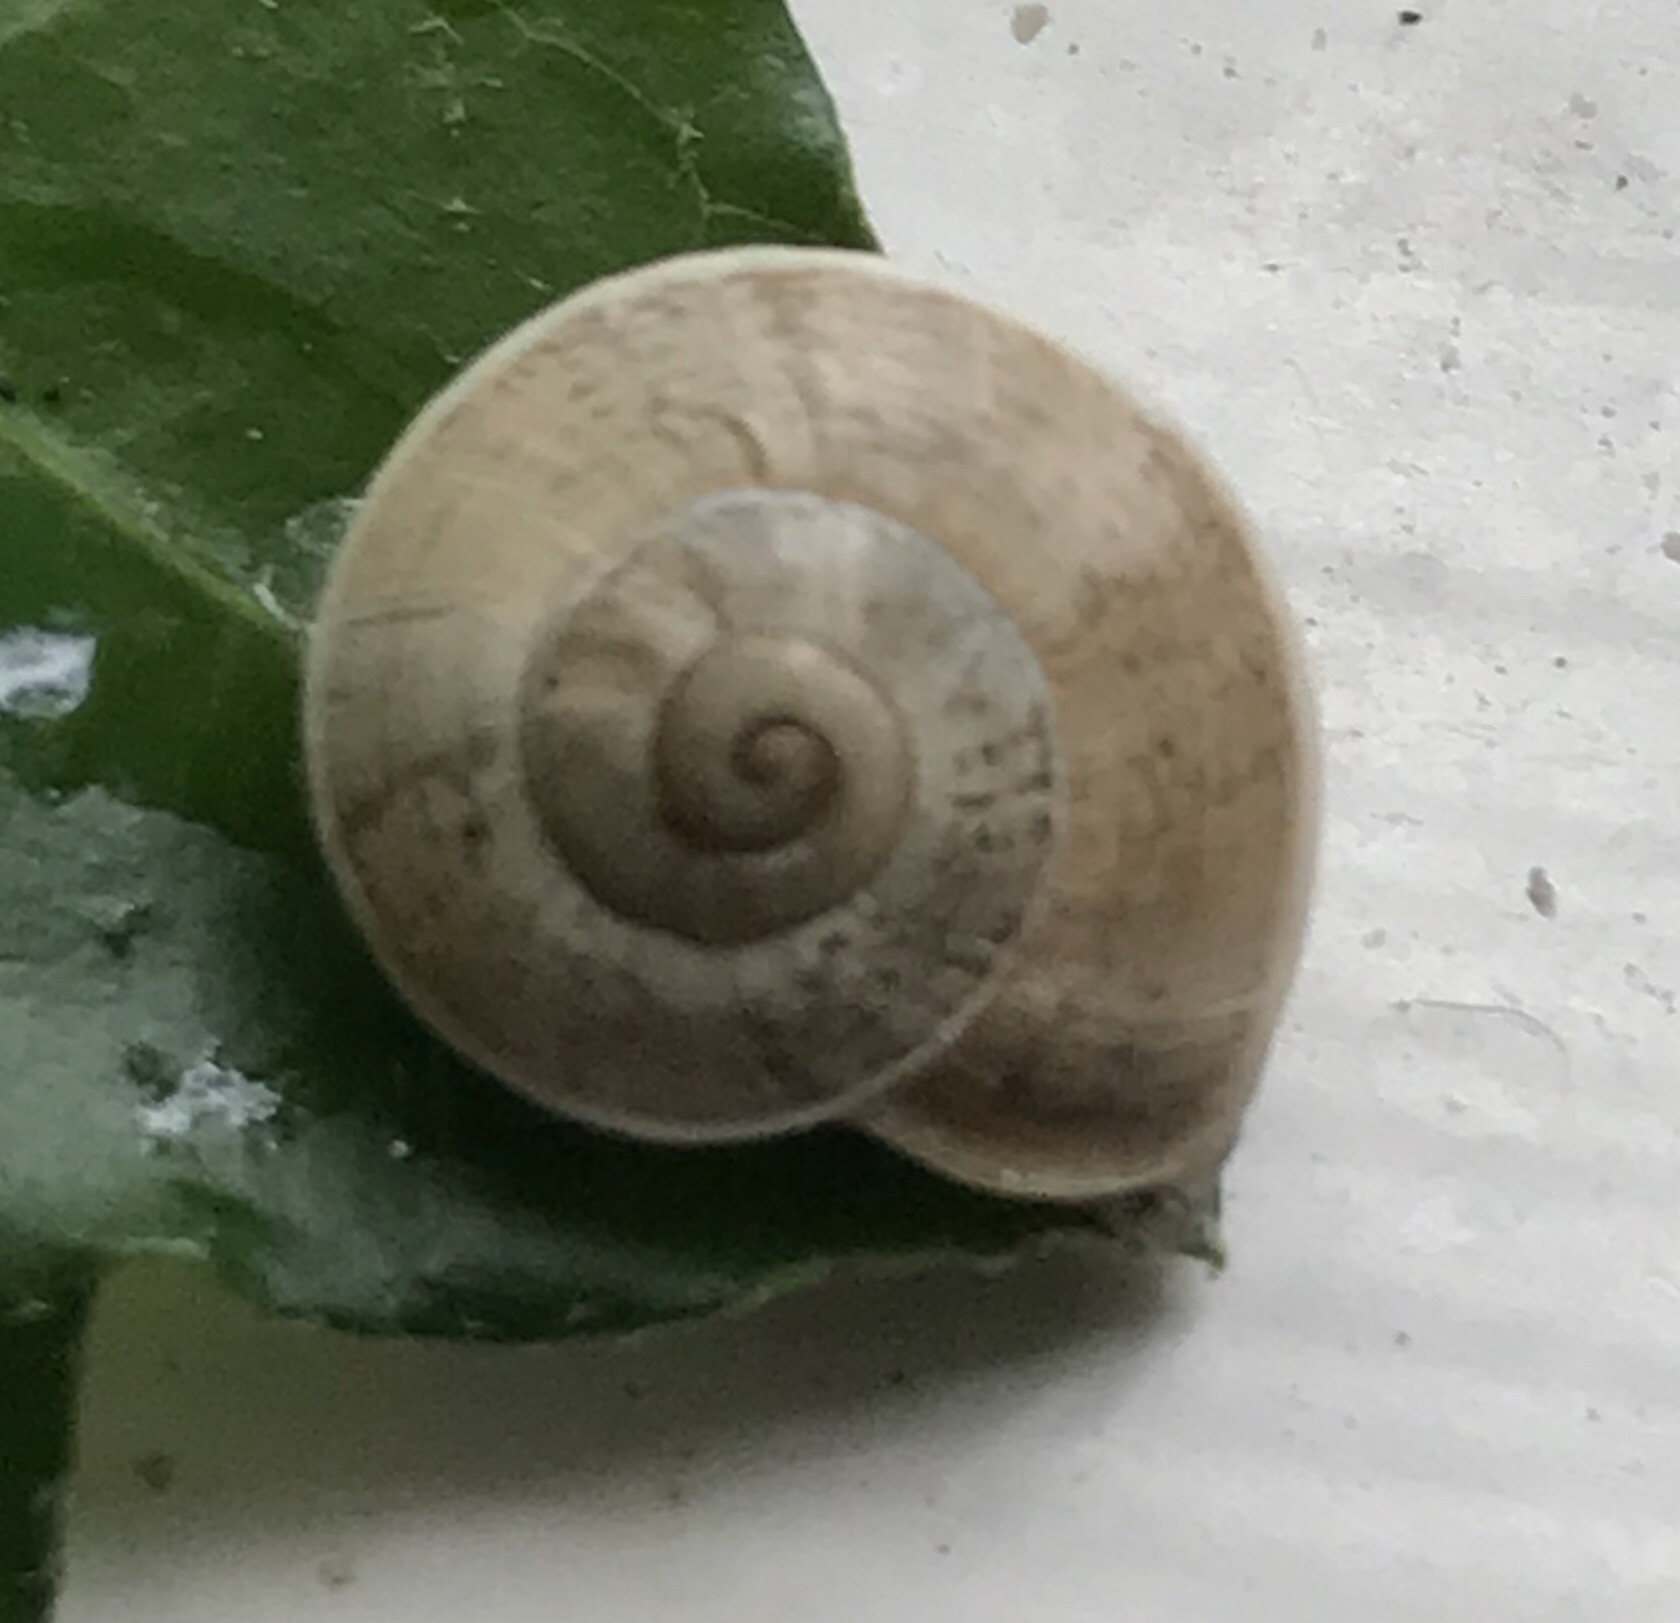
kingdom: Animalia
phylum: Mollusca
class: Gastropoda
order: Stylommatophora
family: Helicidae
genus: Otala
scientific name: Otala lactea
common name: Milk snail
